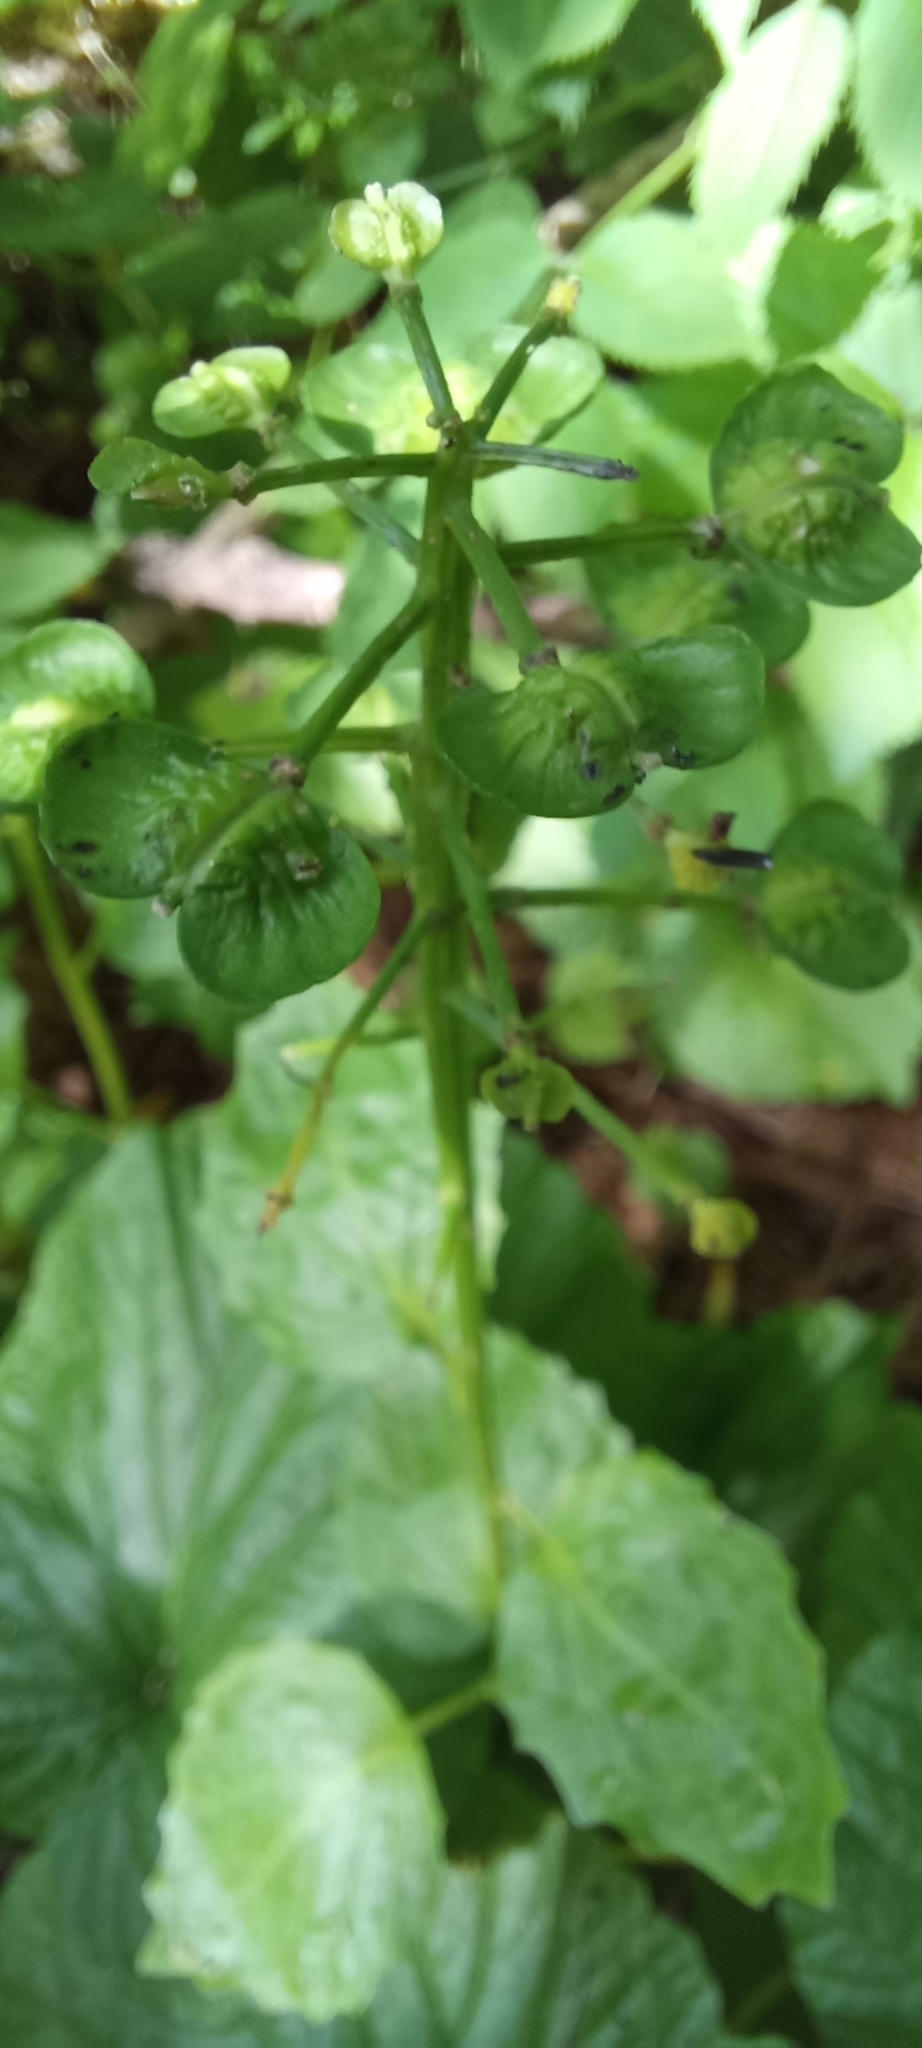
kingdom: Plantae
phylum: Tracheophyta
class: Magnoliopsida
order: Brassicales
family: Brassicaceae
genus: Pachyphragma
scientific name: Pachyphragma macrophyllum
